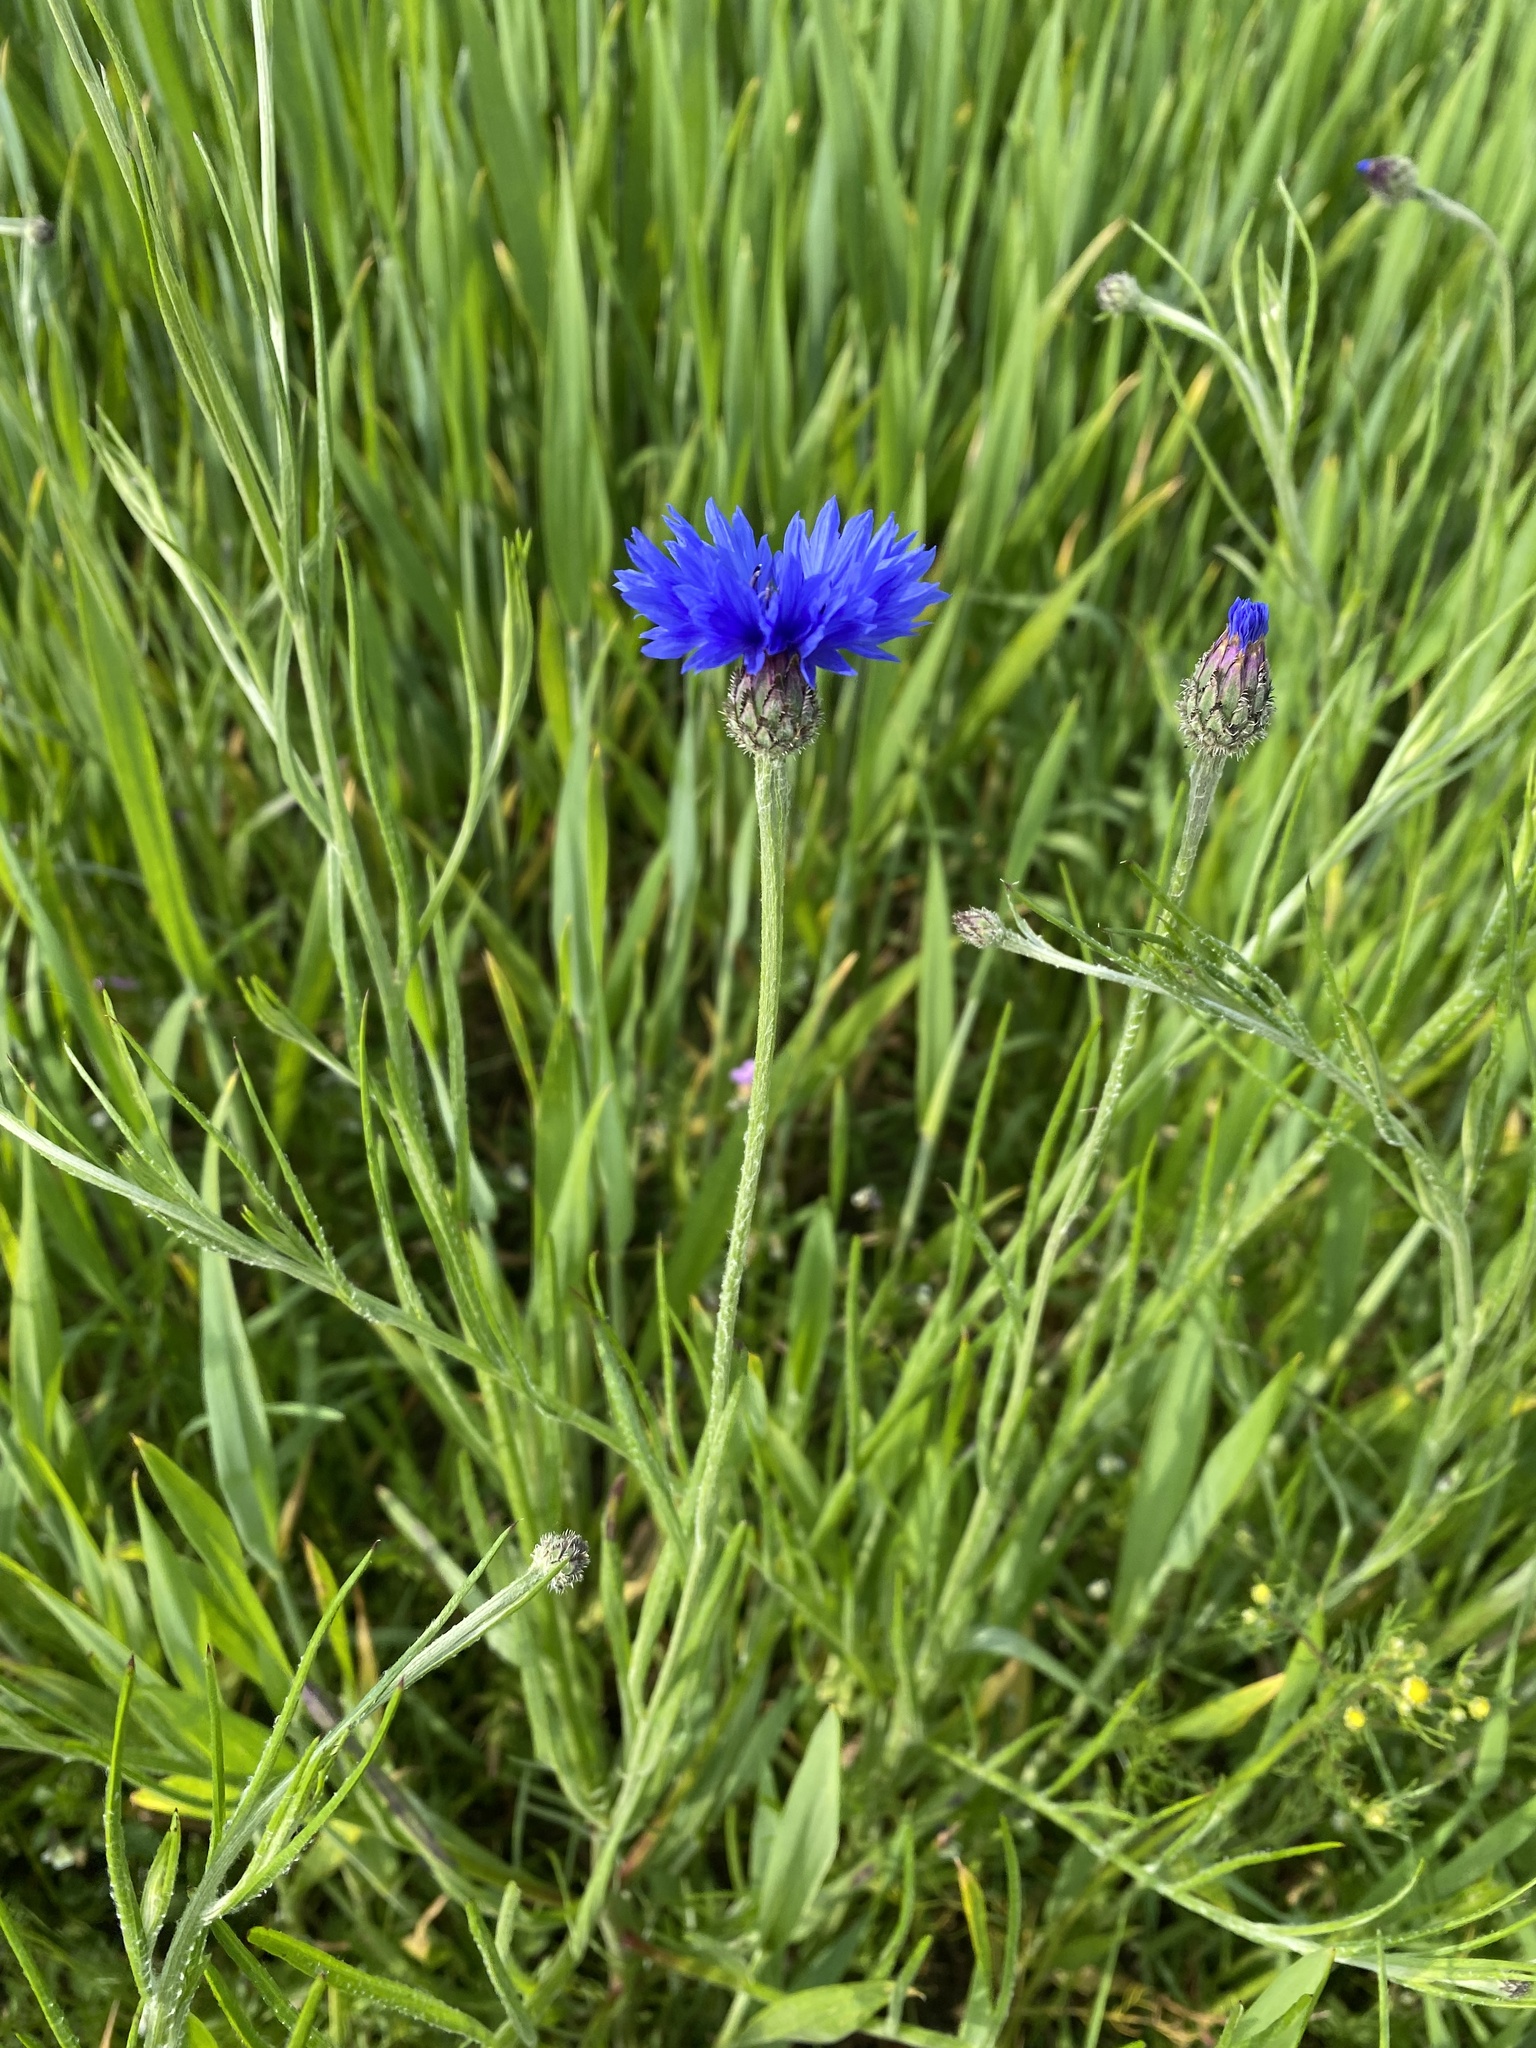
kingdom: Plantae
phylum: Tracheophyta
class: Magnoliopsida
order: Asterales
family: Asteraceae
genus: Centaurea
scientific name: Centaurea cyanus
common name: Cornflower
